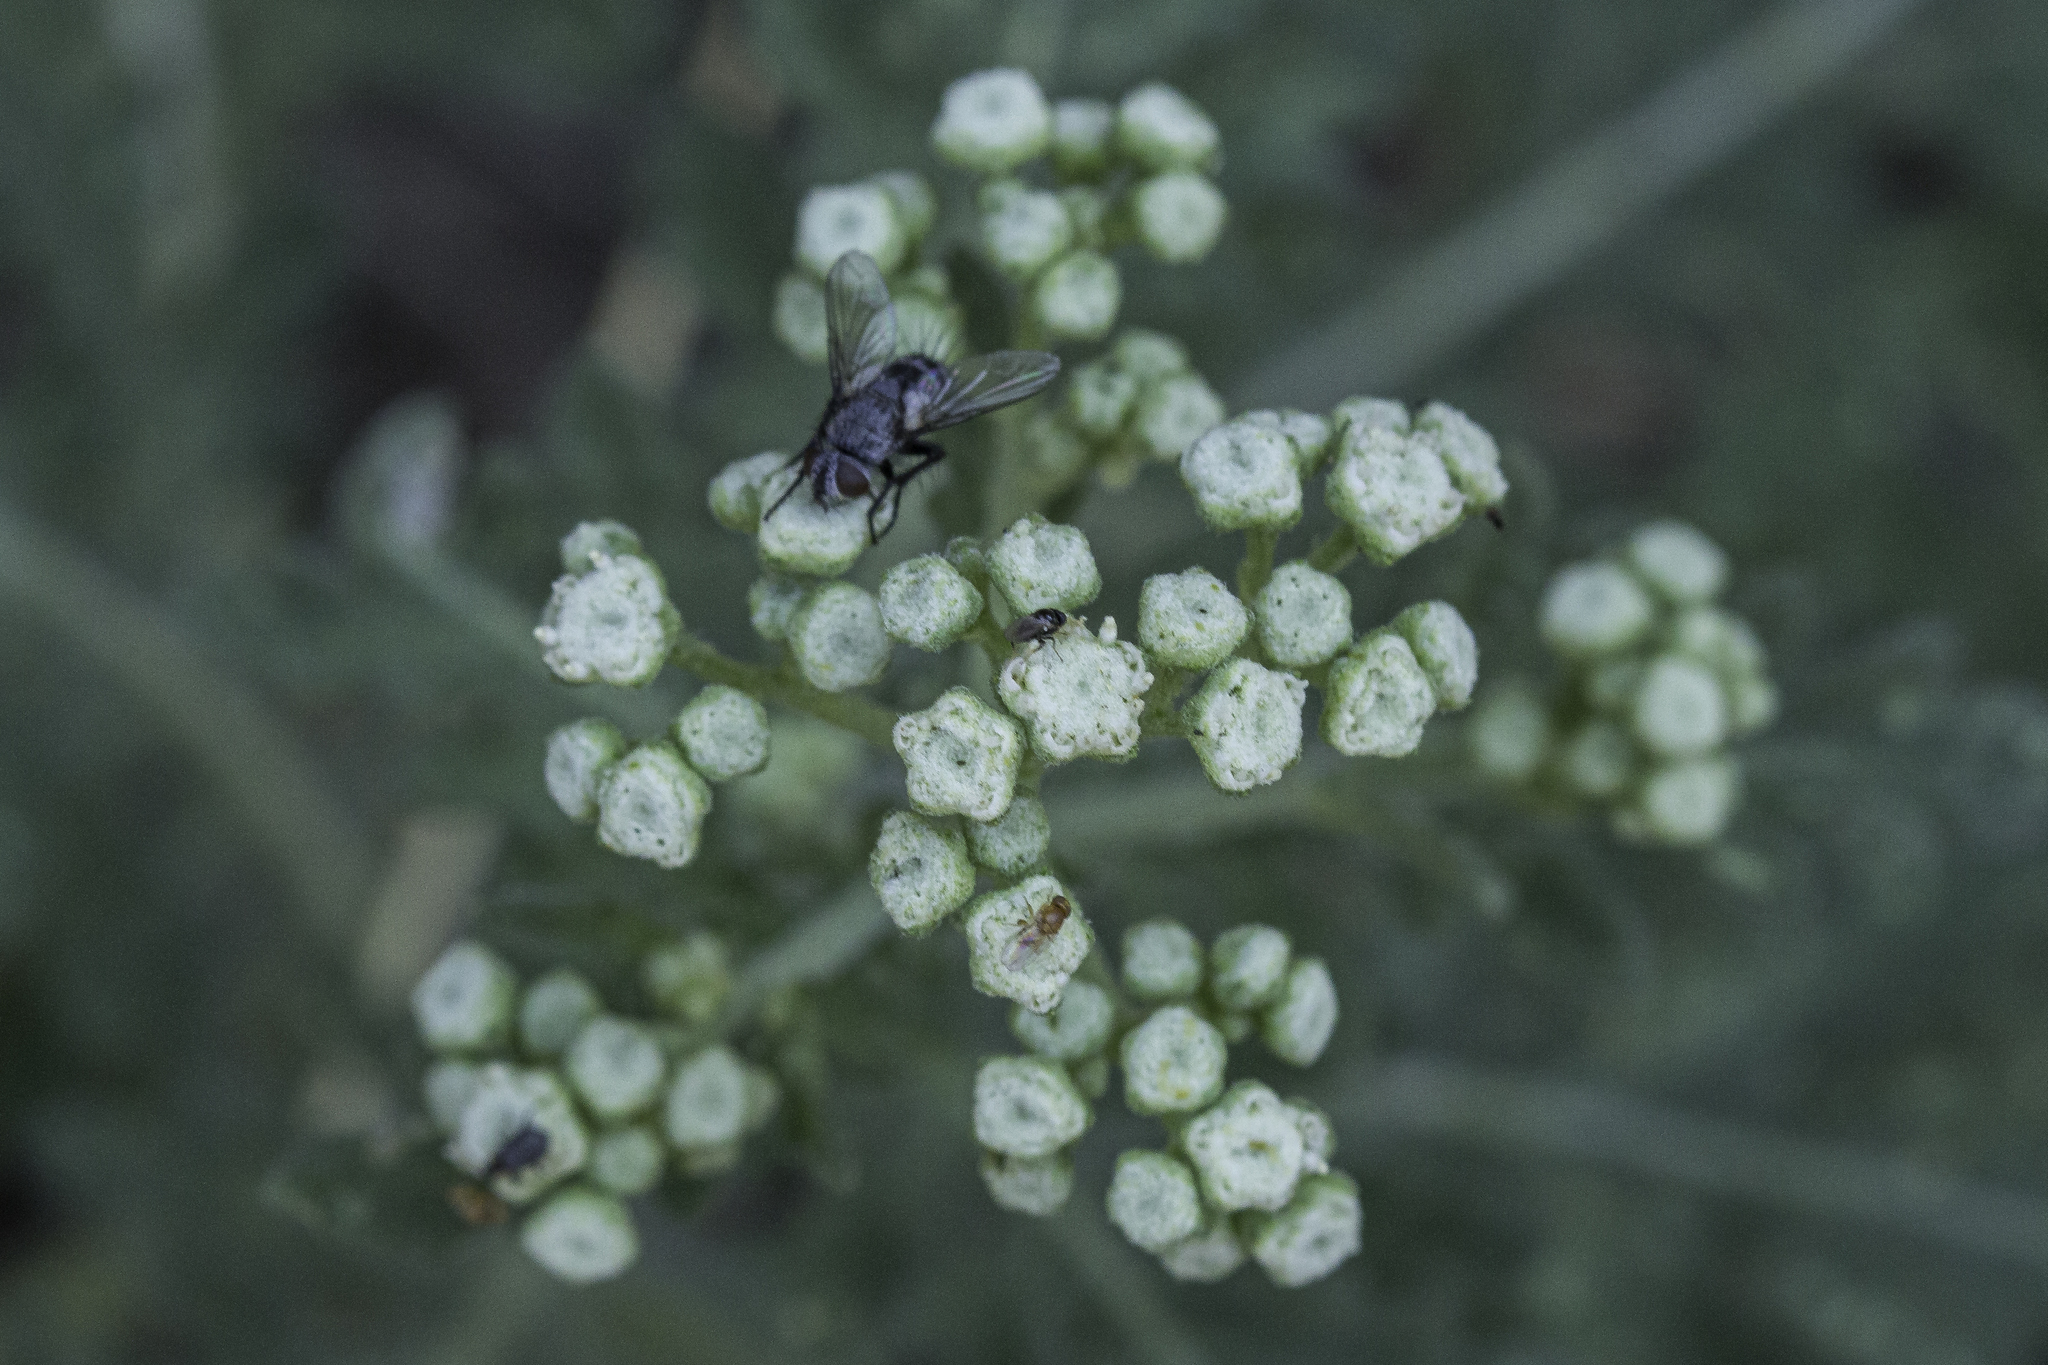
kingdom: Plantae
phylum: Tracheophyta
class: Magnoliopsida
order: Asterales
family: Asteraceae
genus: Parthenium
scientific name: Parthenium confertum
